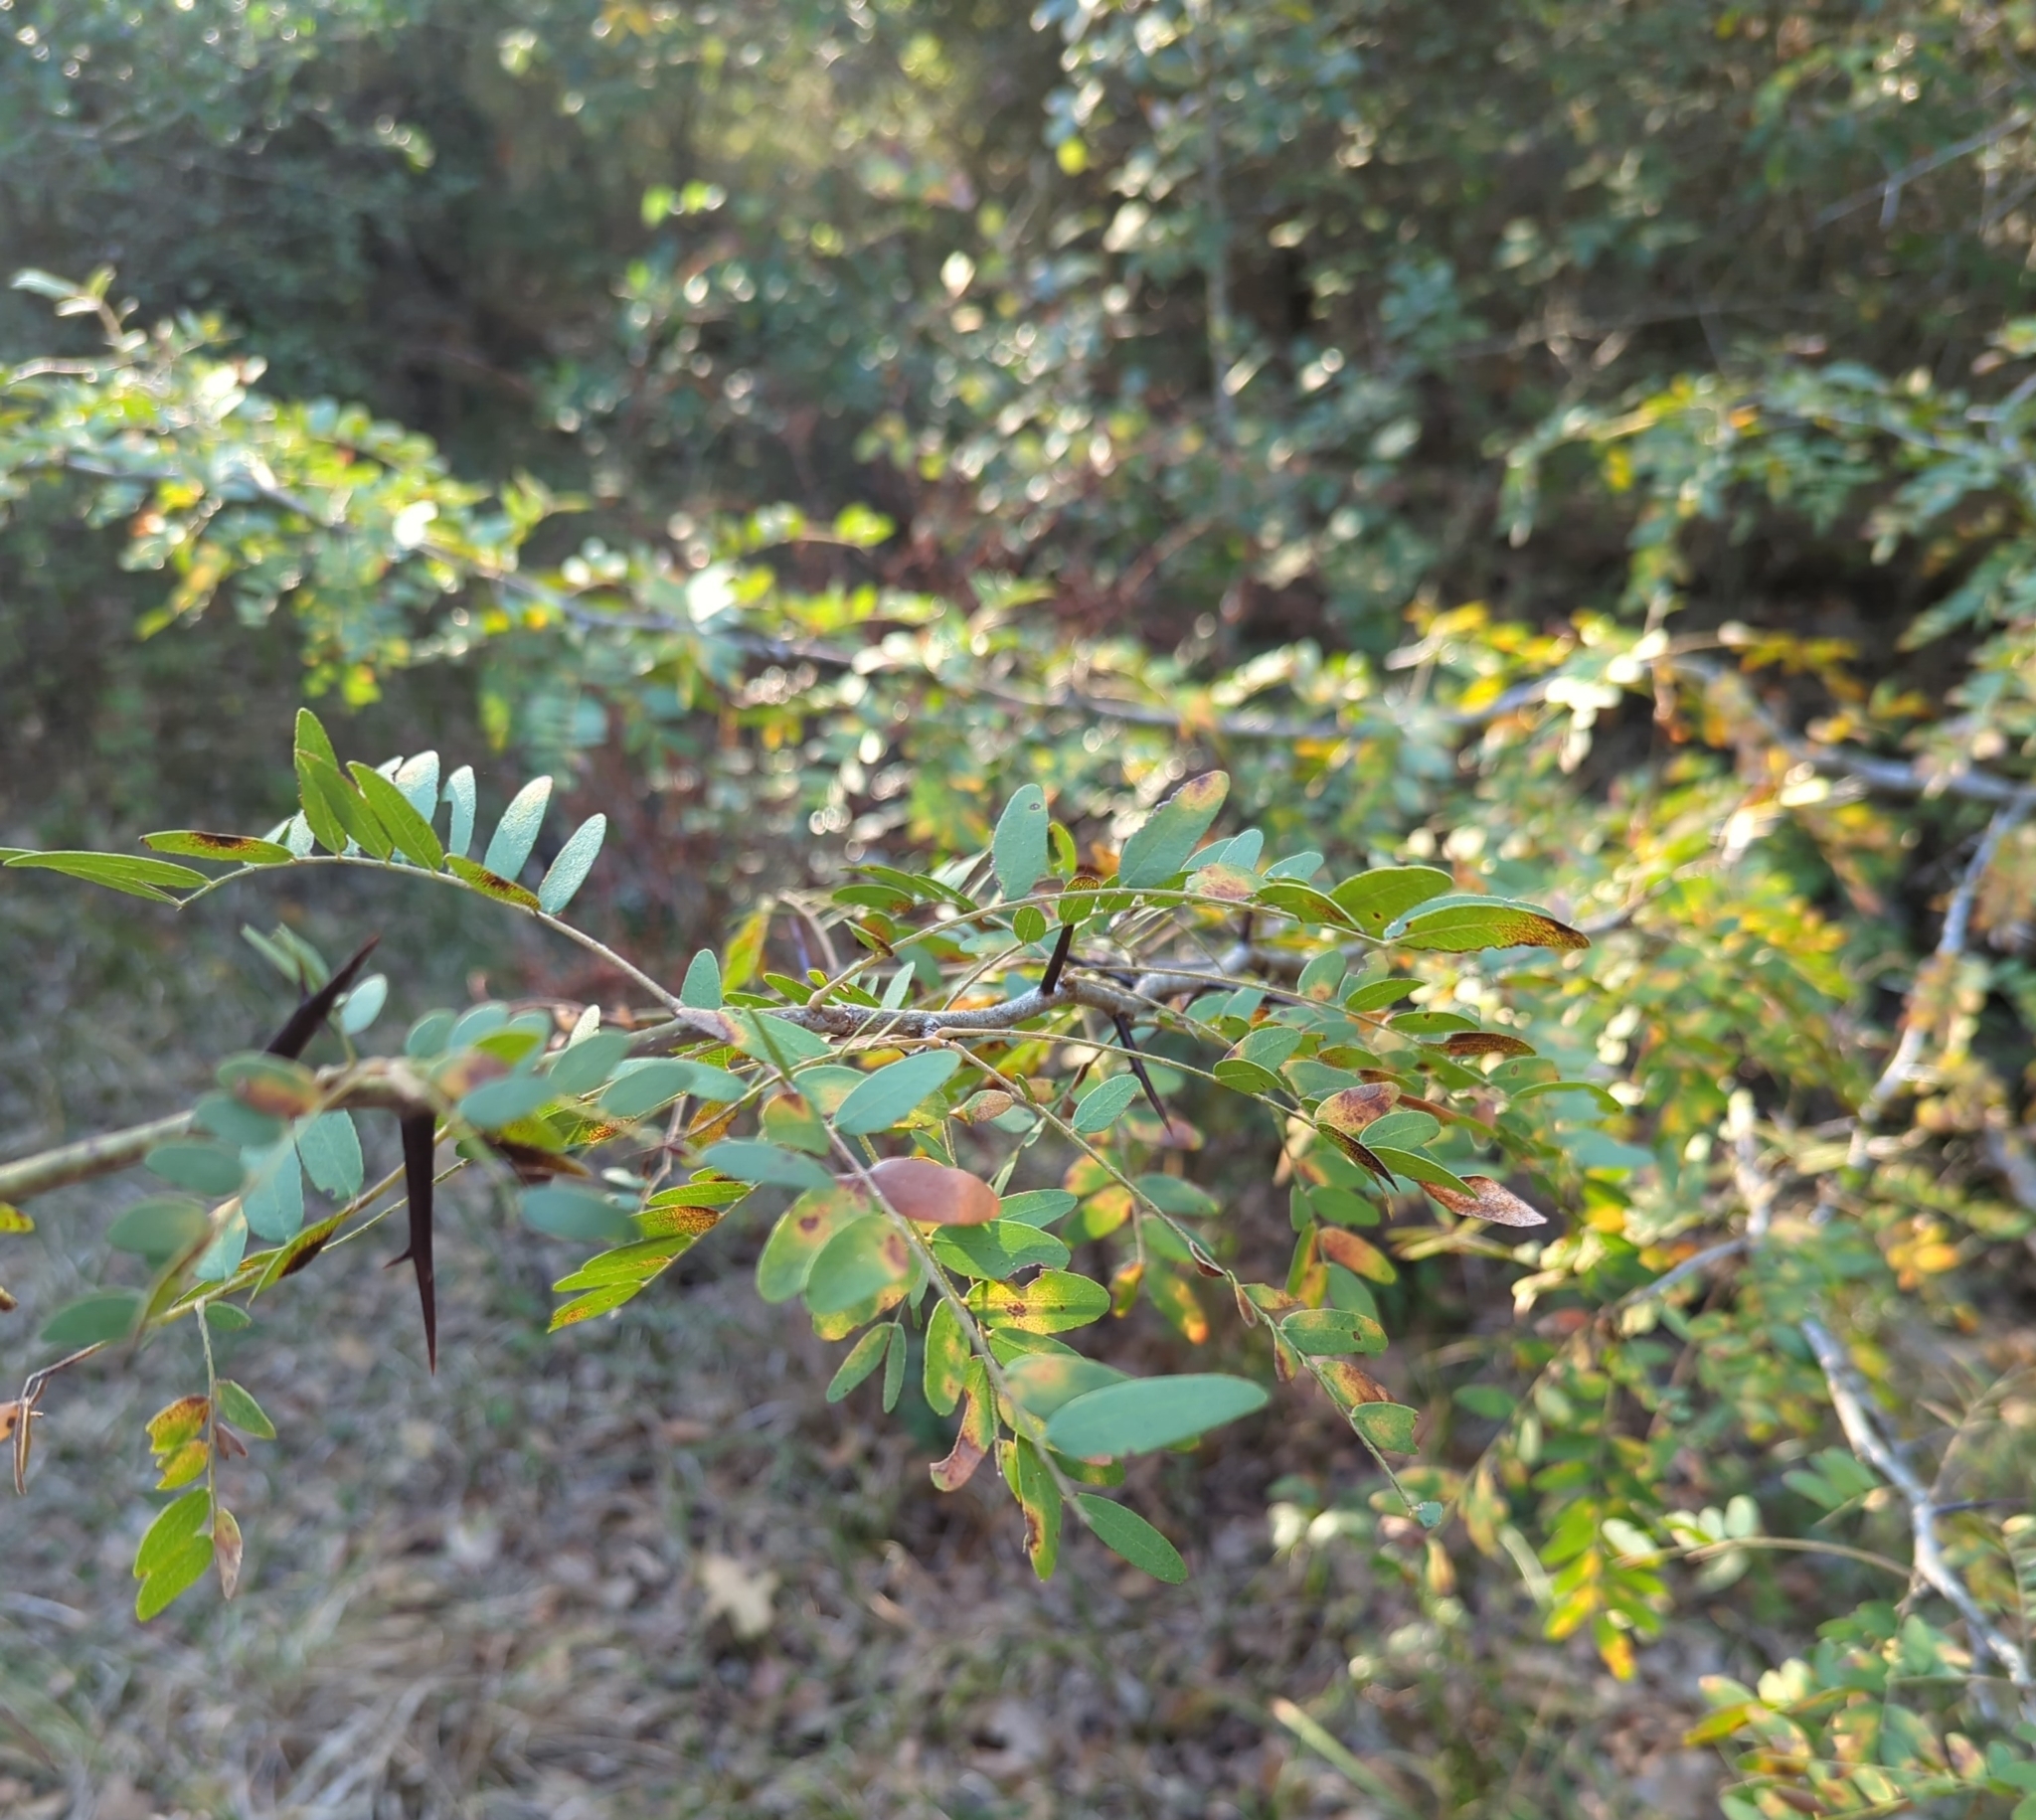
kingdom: Plantae
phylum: Tracheophyta
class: Magnoliopsida
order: Fabales
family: Fabaceae
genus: Gleditsia
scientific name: Gleditsia triacanthos
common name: Common honeylocust
